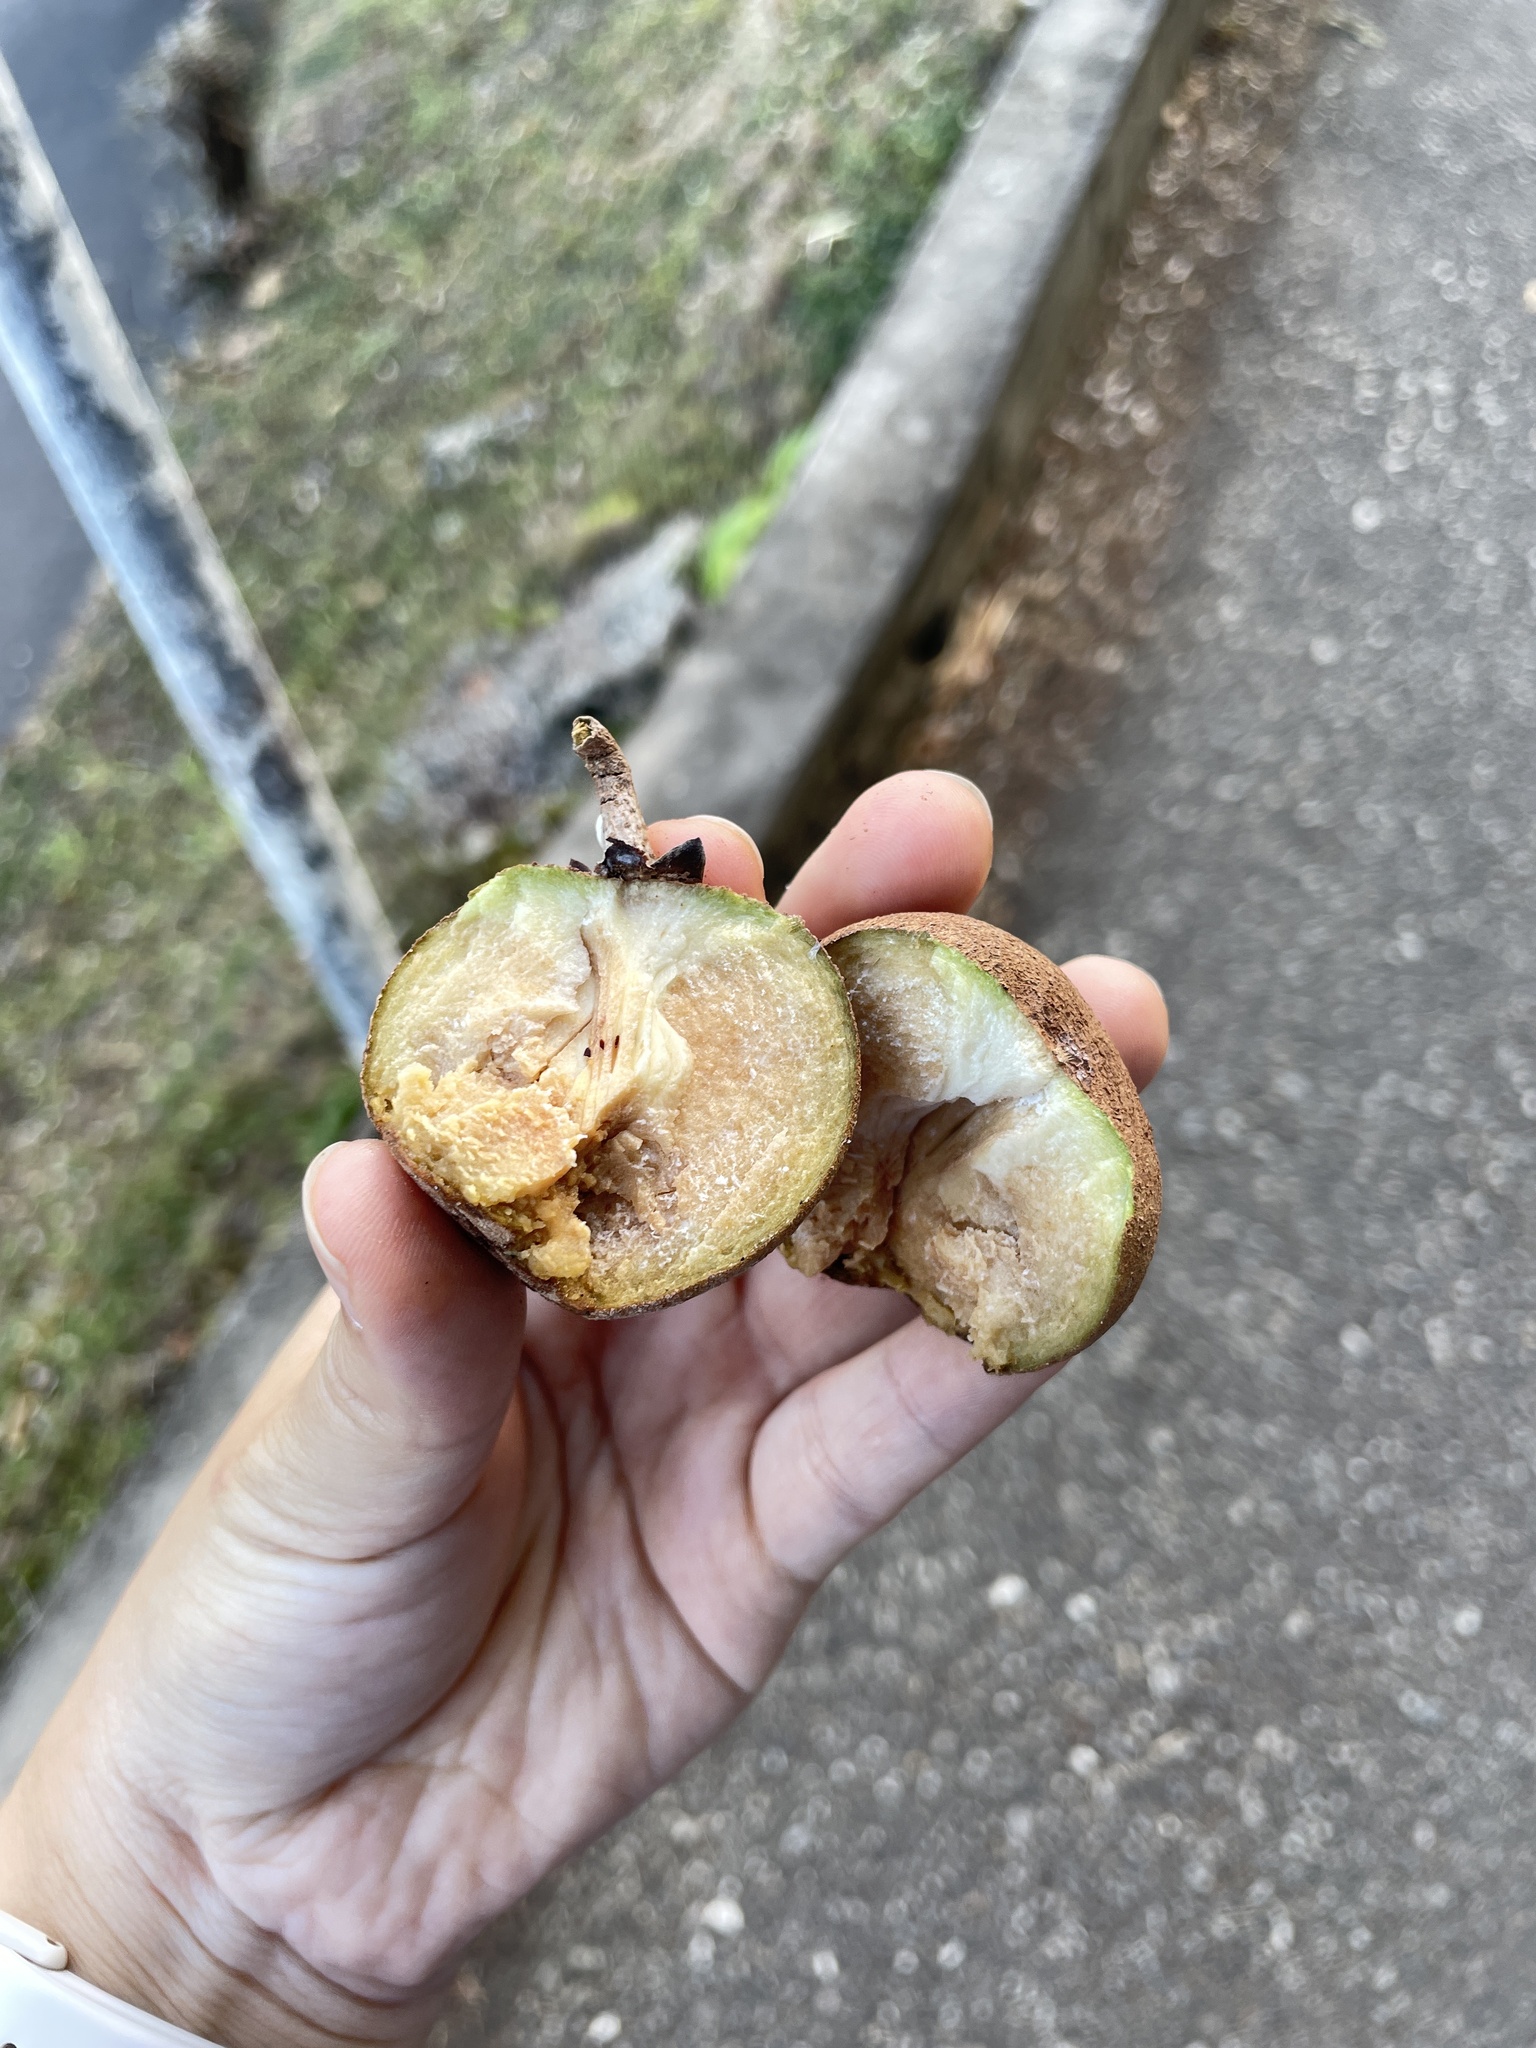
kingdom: Plantae
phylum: Tracheophyta
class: Magnoliopsida
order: Ericales
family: Sapotaceae
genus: Manilkara
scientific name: Manilkara zapota
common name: Sapodilla
